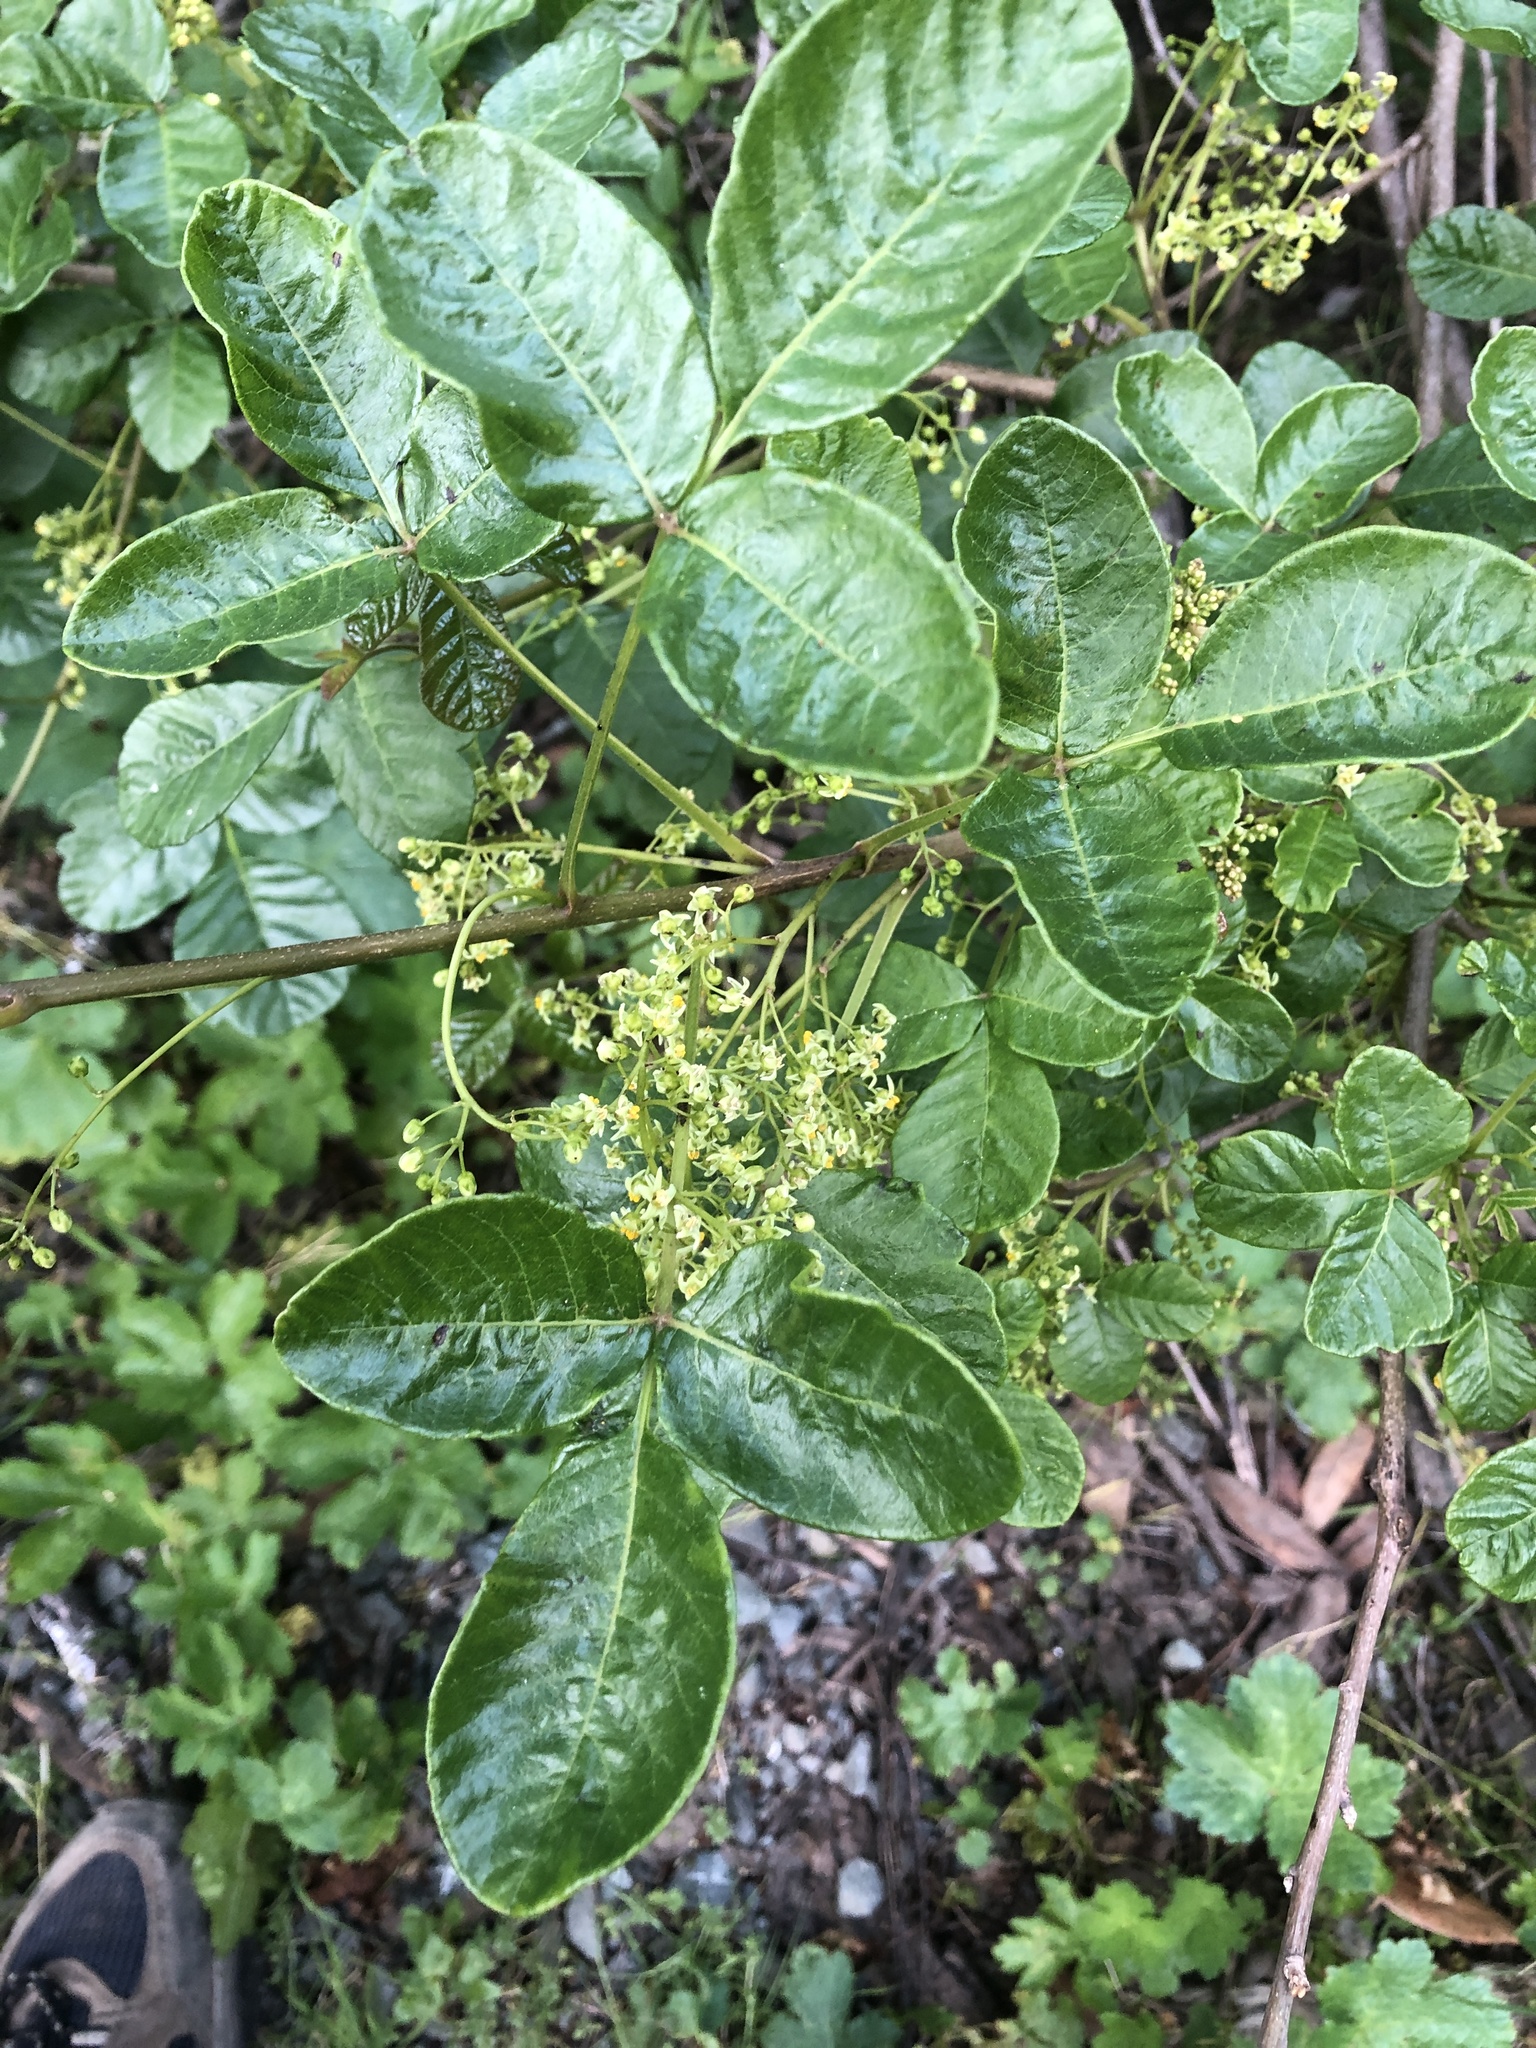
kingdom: Plantae
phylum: Tracheophyta
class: Magnoliopsida
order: Sapindales
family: Anacardiaceae
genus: Toxicodendron
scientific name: Toxicodendron diversilobum
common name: Pacific poison-oak
